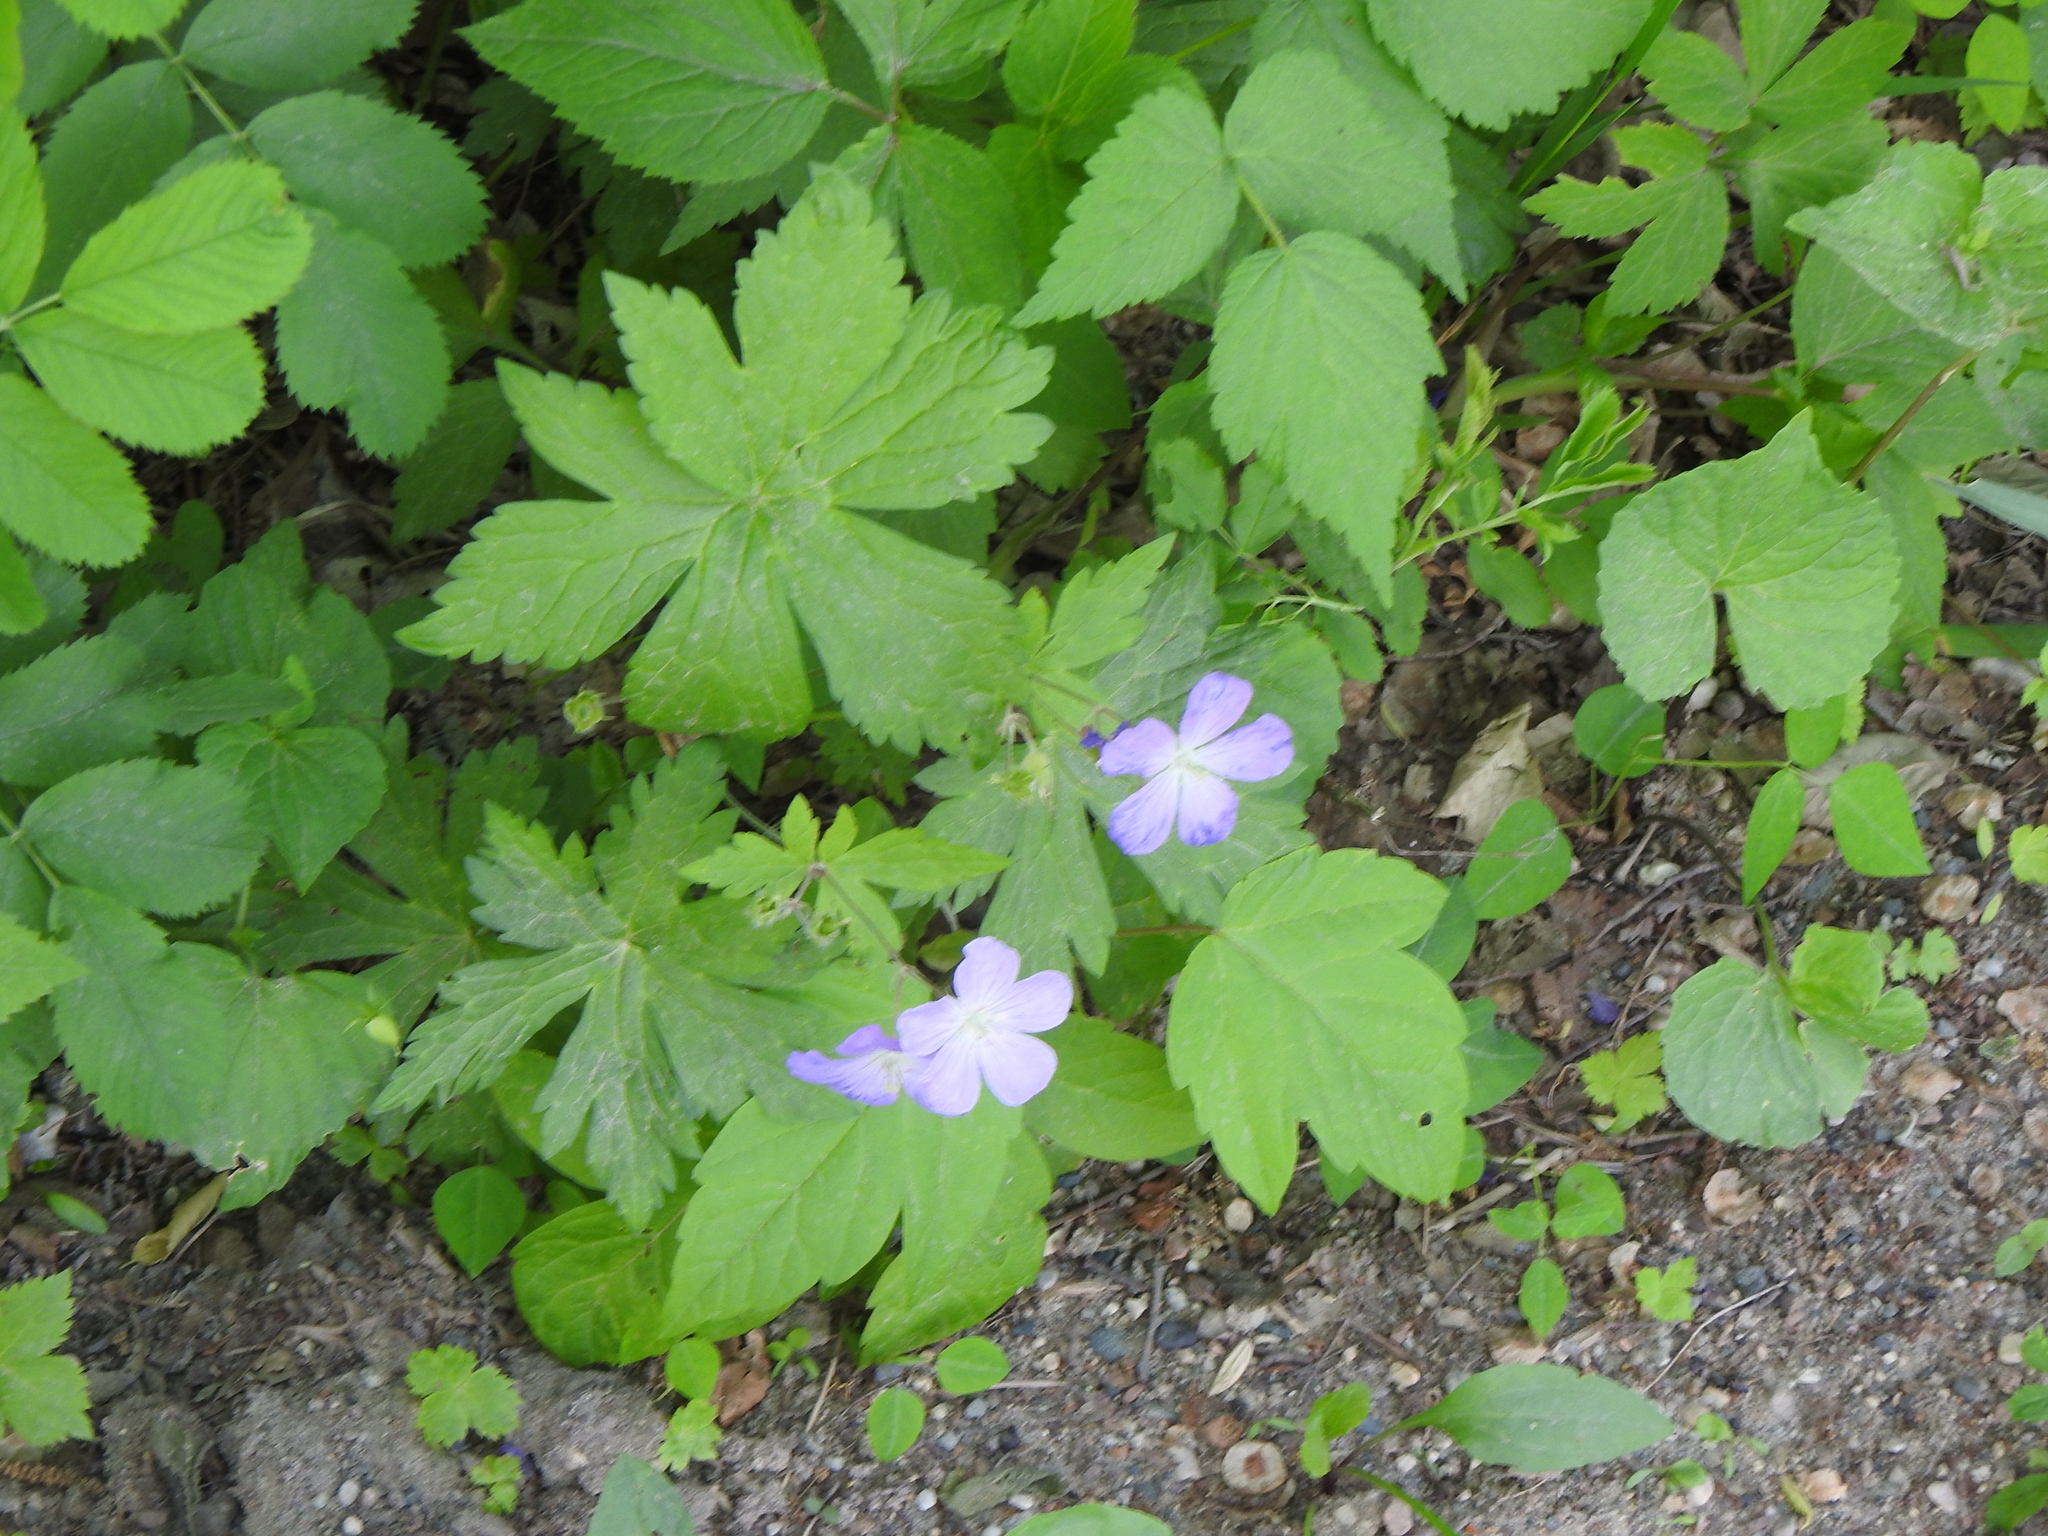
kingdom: Plantae
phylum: Tracheophyta
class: Magnoliopsida
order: Geraniales
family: Geraniaceae
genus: Geranium
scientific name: Geranium maculatum
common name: Spotted geranium
